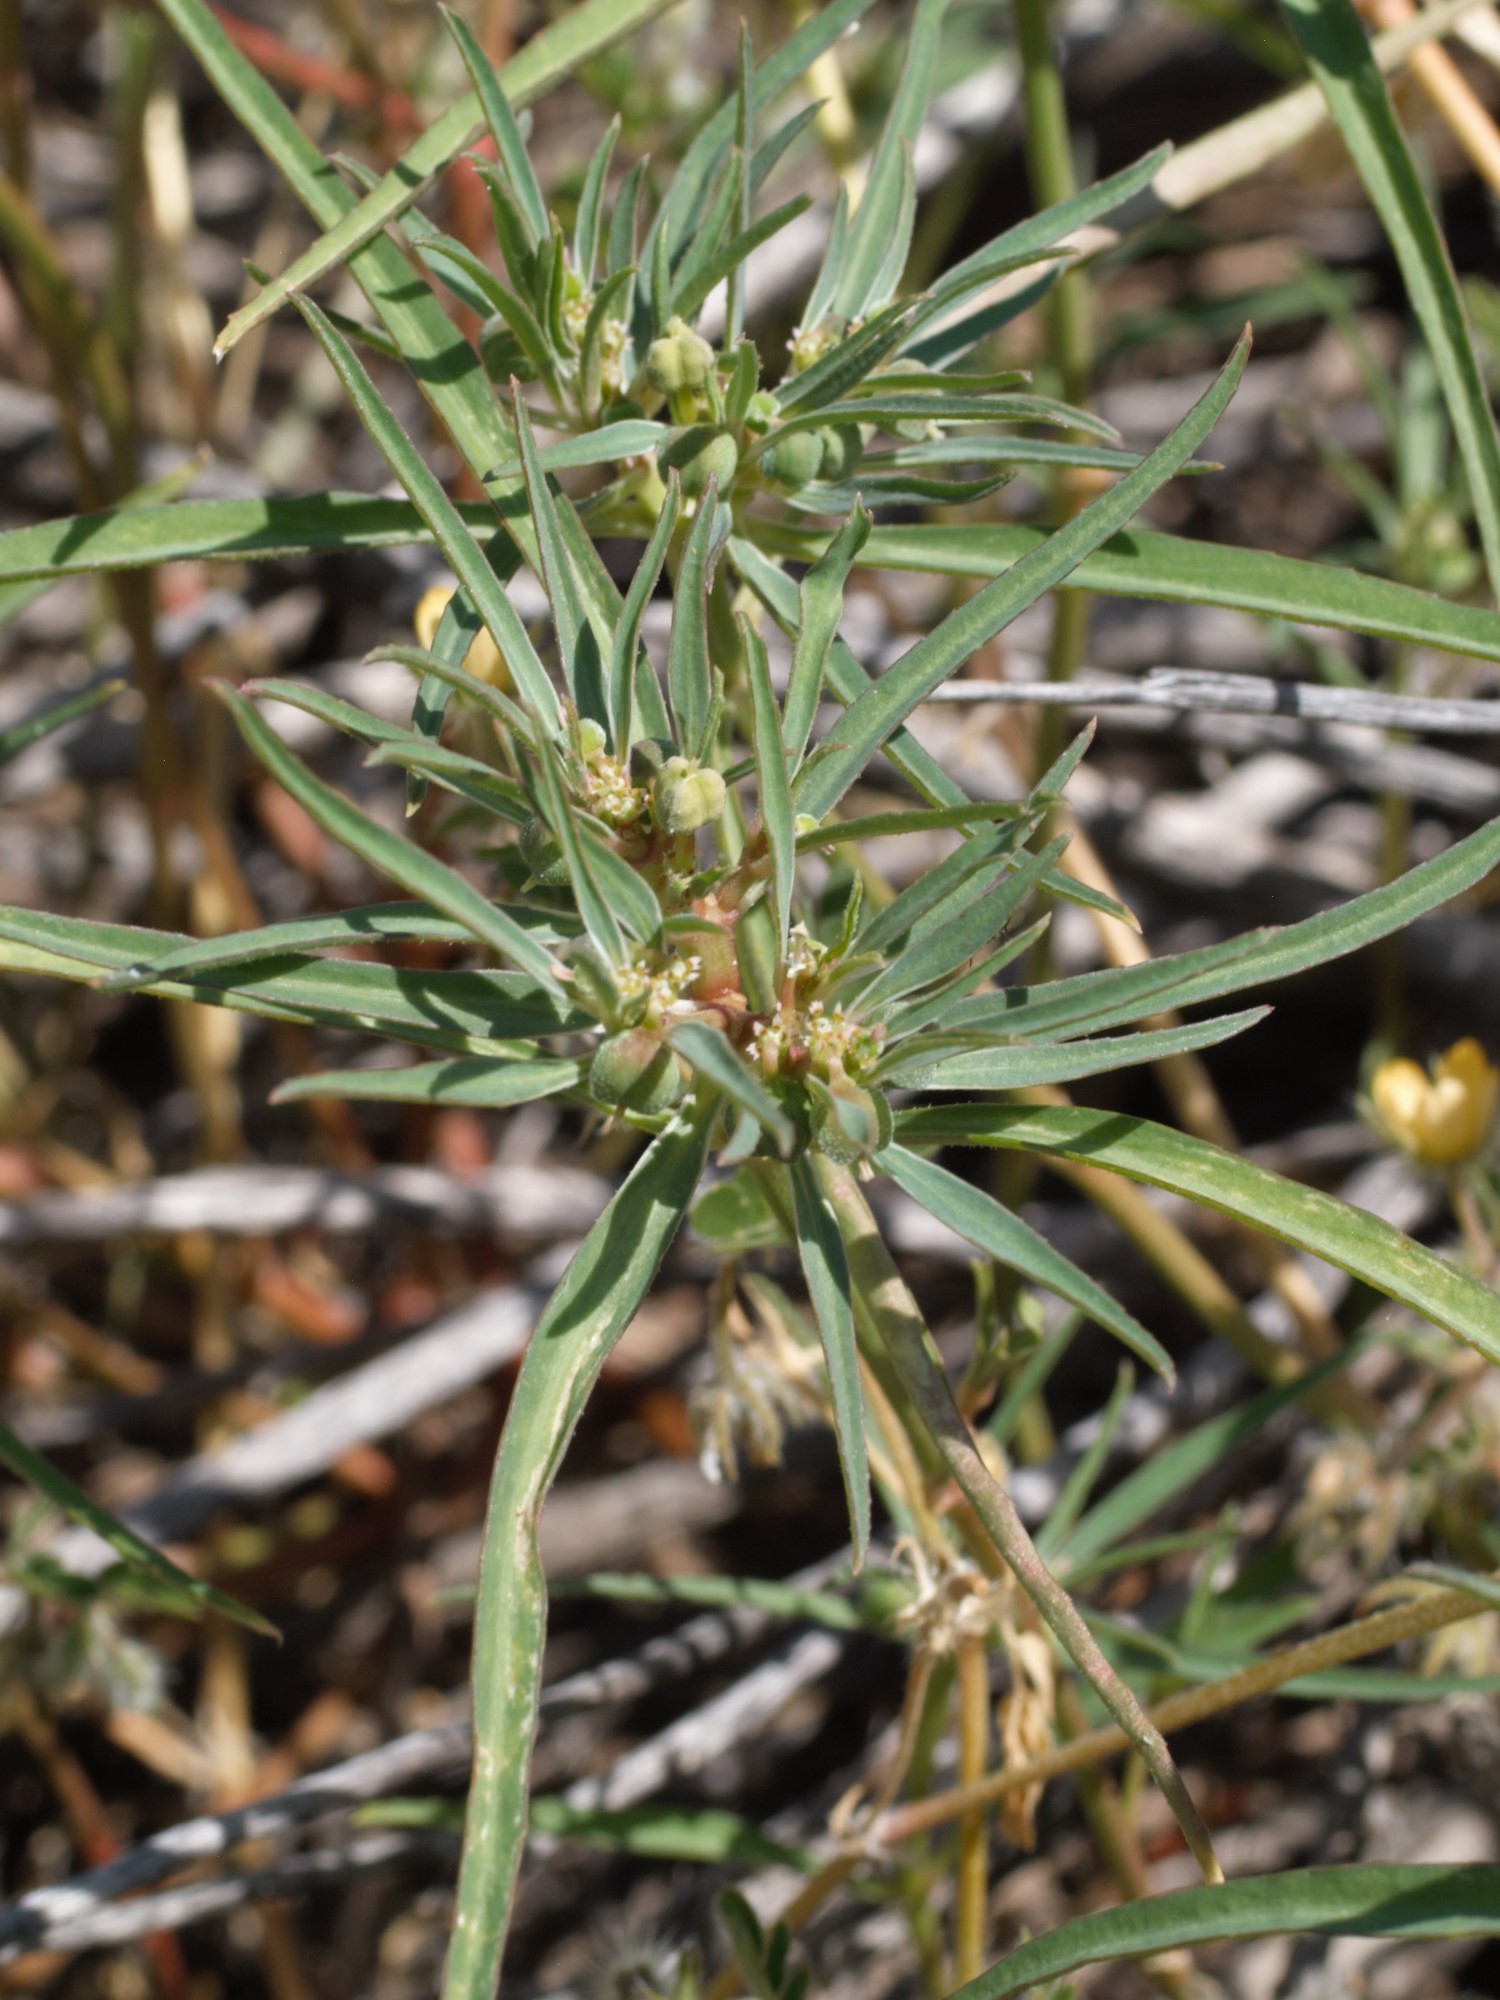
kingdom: Plantae
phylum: Tracheophyta
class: Magnoliopsida
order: Malpighiales
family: Euphorbiaceae
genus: Euphorbia
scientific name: Euphorbia exstipulata
